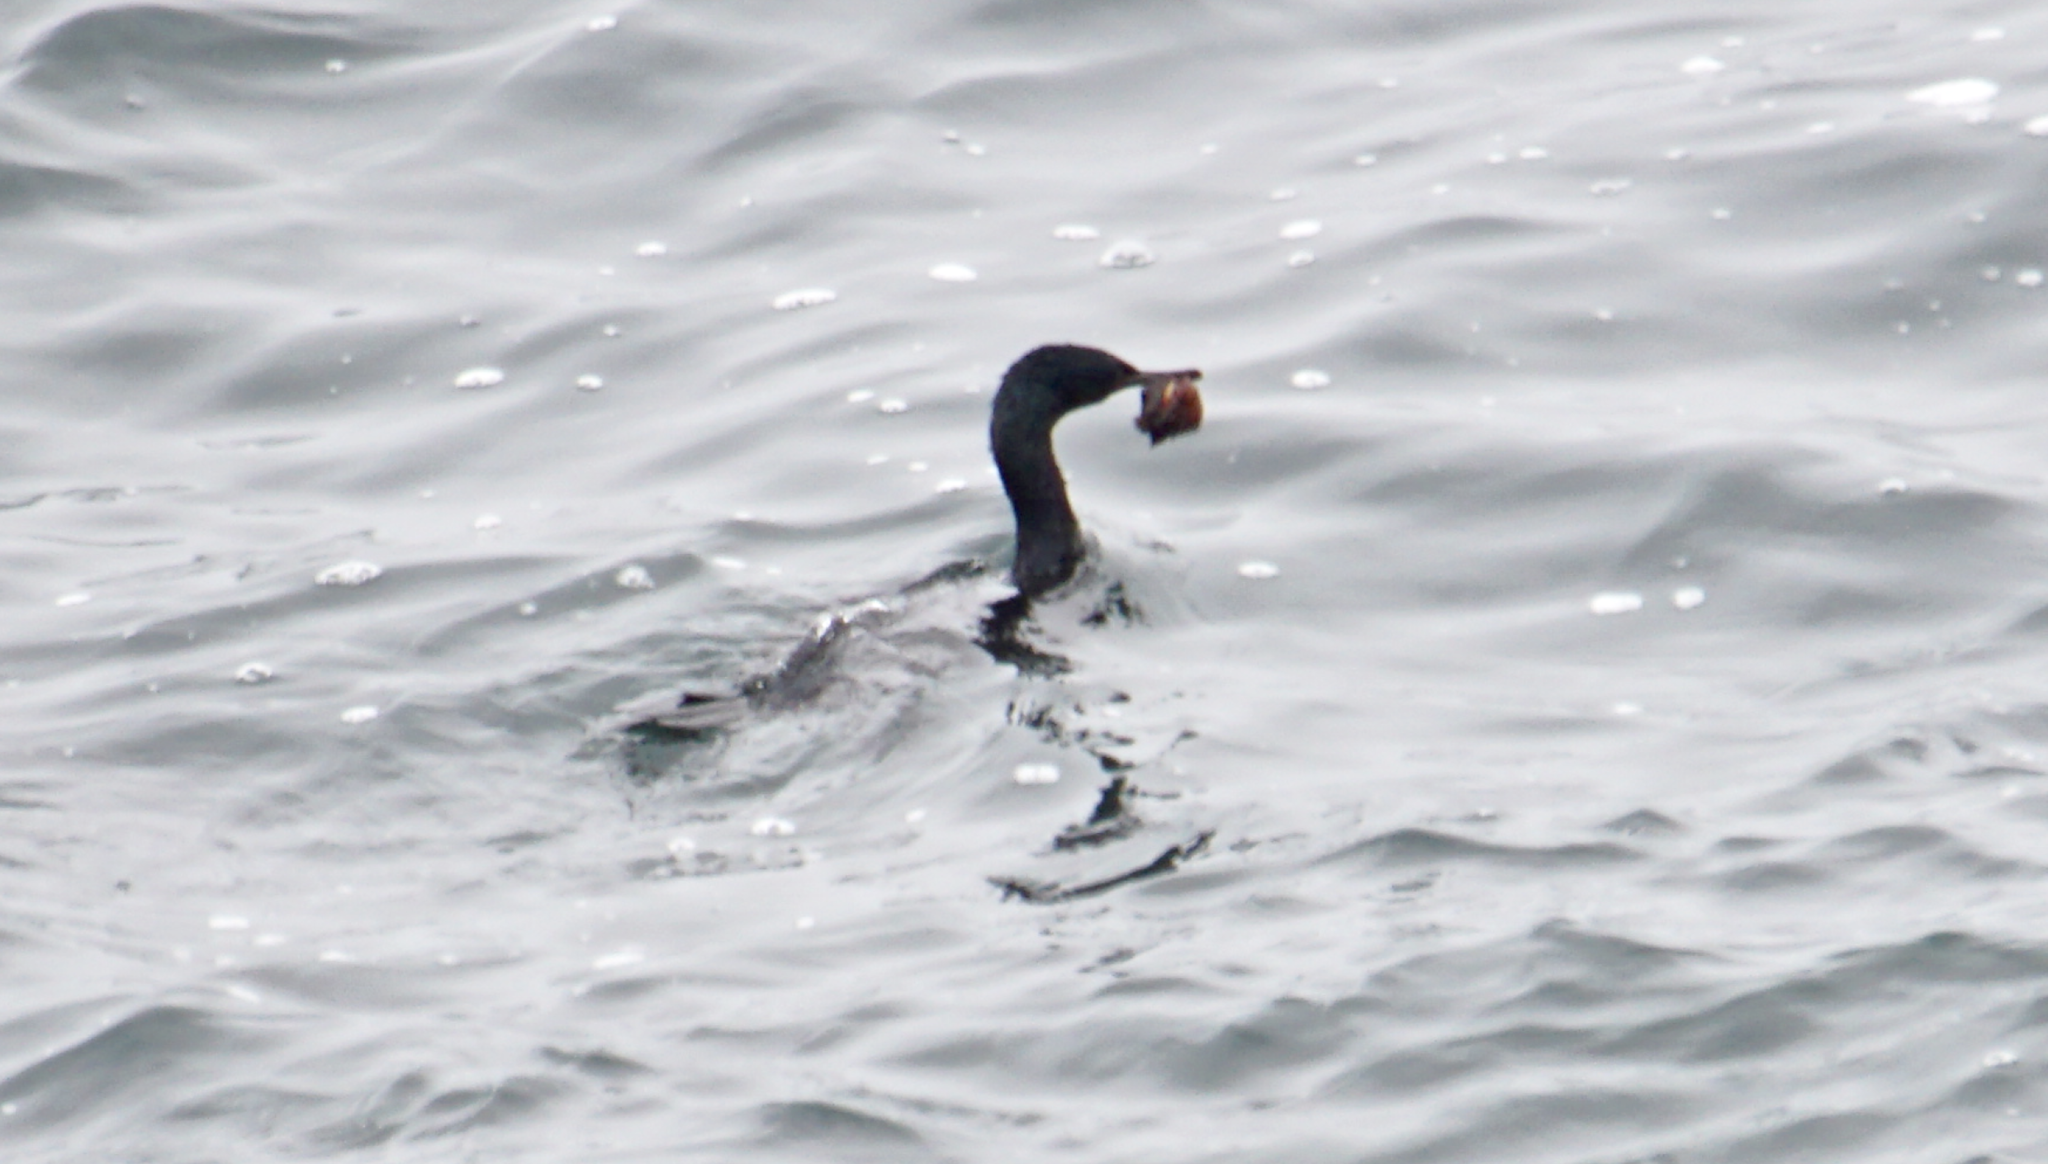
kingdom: Animalia
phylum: Chordata
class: Aves
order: Suliformes
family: Phalacrocoracidae
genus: Phalacrocorax
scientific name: Phalacrocorax pelagicus
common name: Pelagic cormorant
